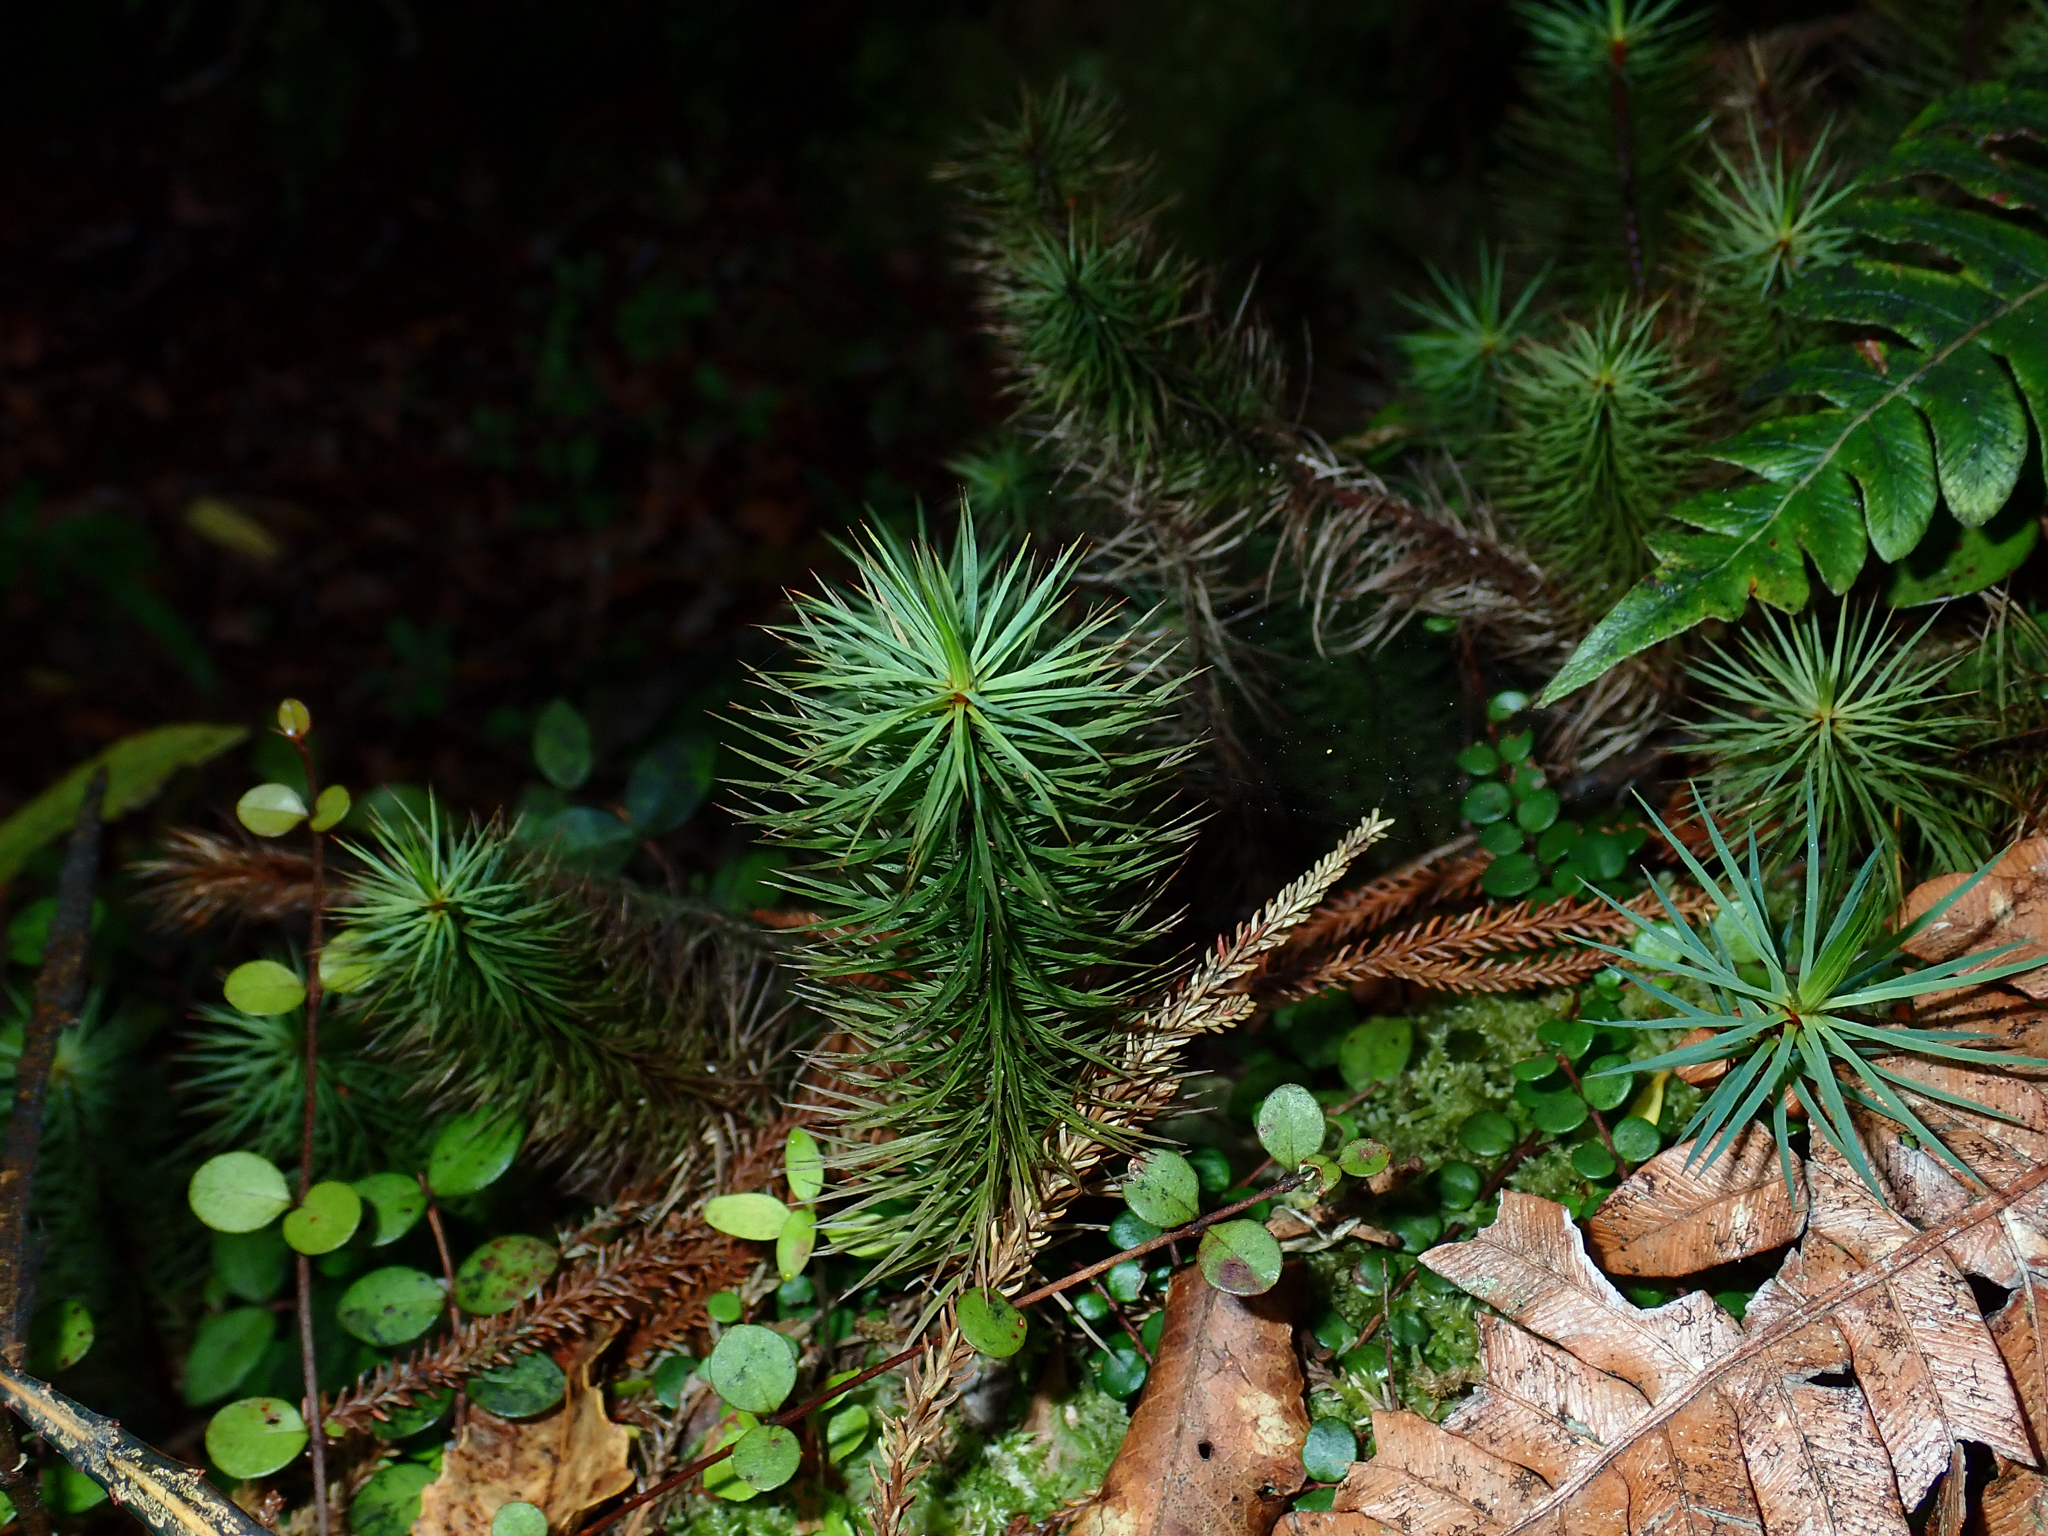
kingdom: Plantae
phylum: Bryophyta
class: Polytrichopsida
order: Polytrichales
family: Polytrichaceae
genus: Dawsonia
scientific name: Dawsonia superba
